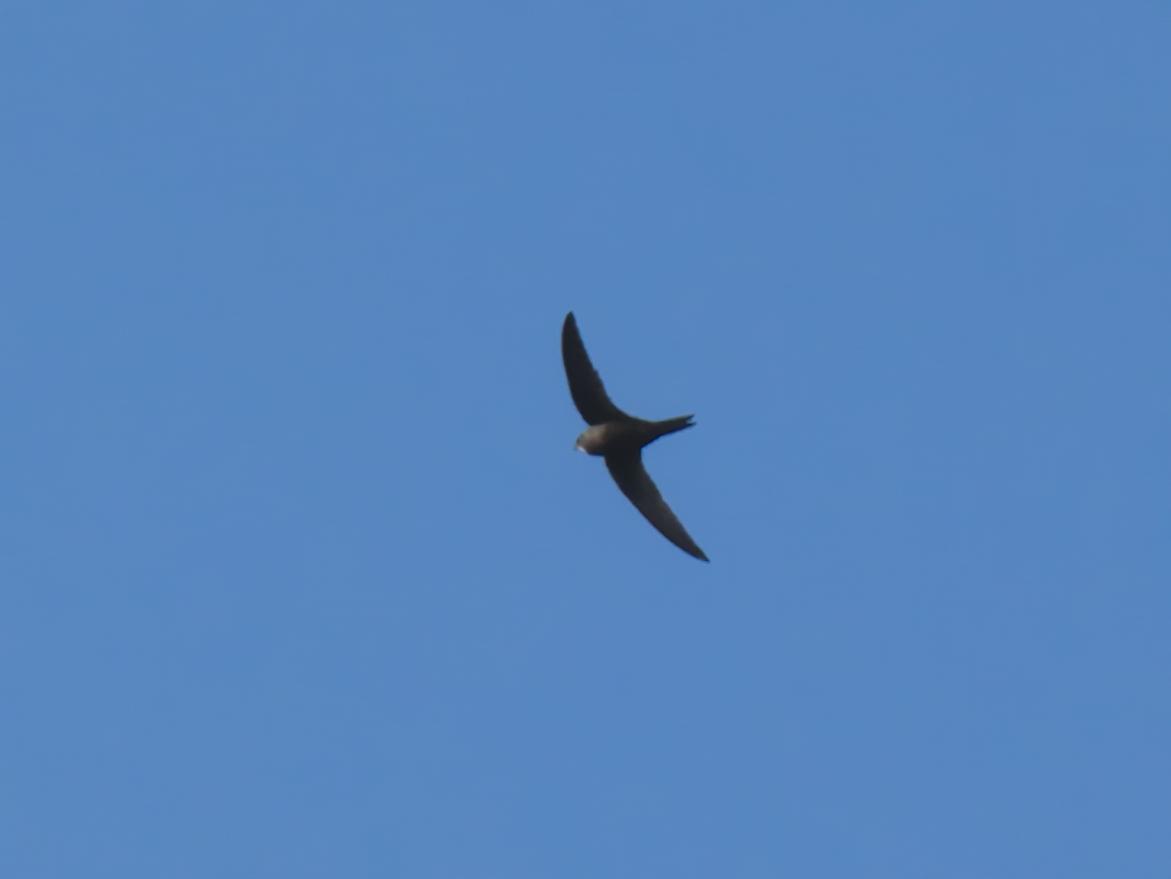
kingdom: Animalia
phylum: Chordata
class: Aves
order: Apodiformes
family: Apodidae
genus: Apus
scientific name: Apus apus
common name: Common swift
